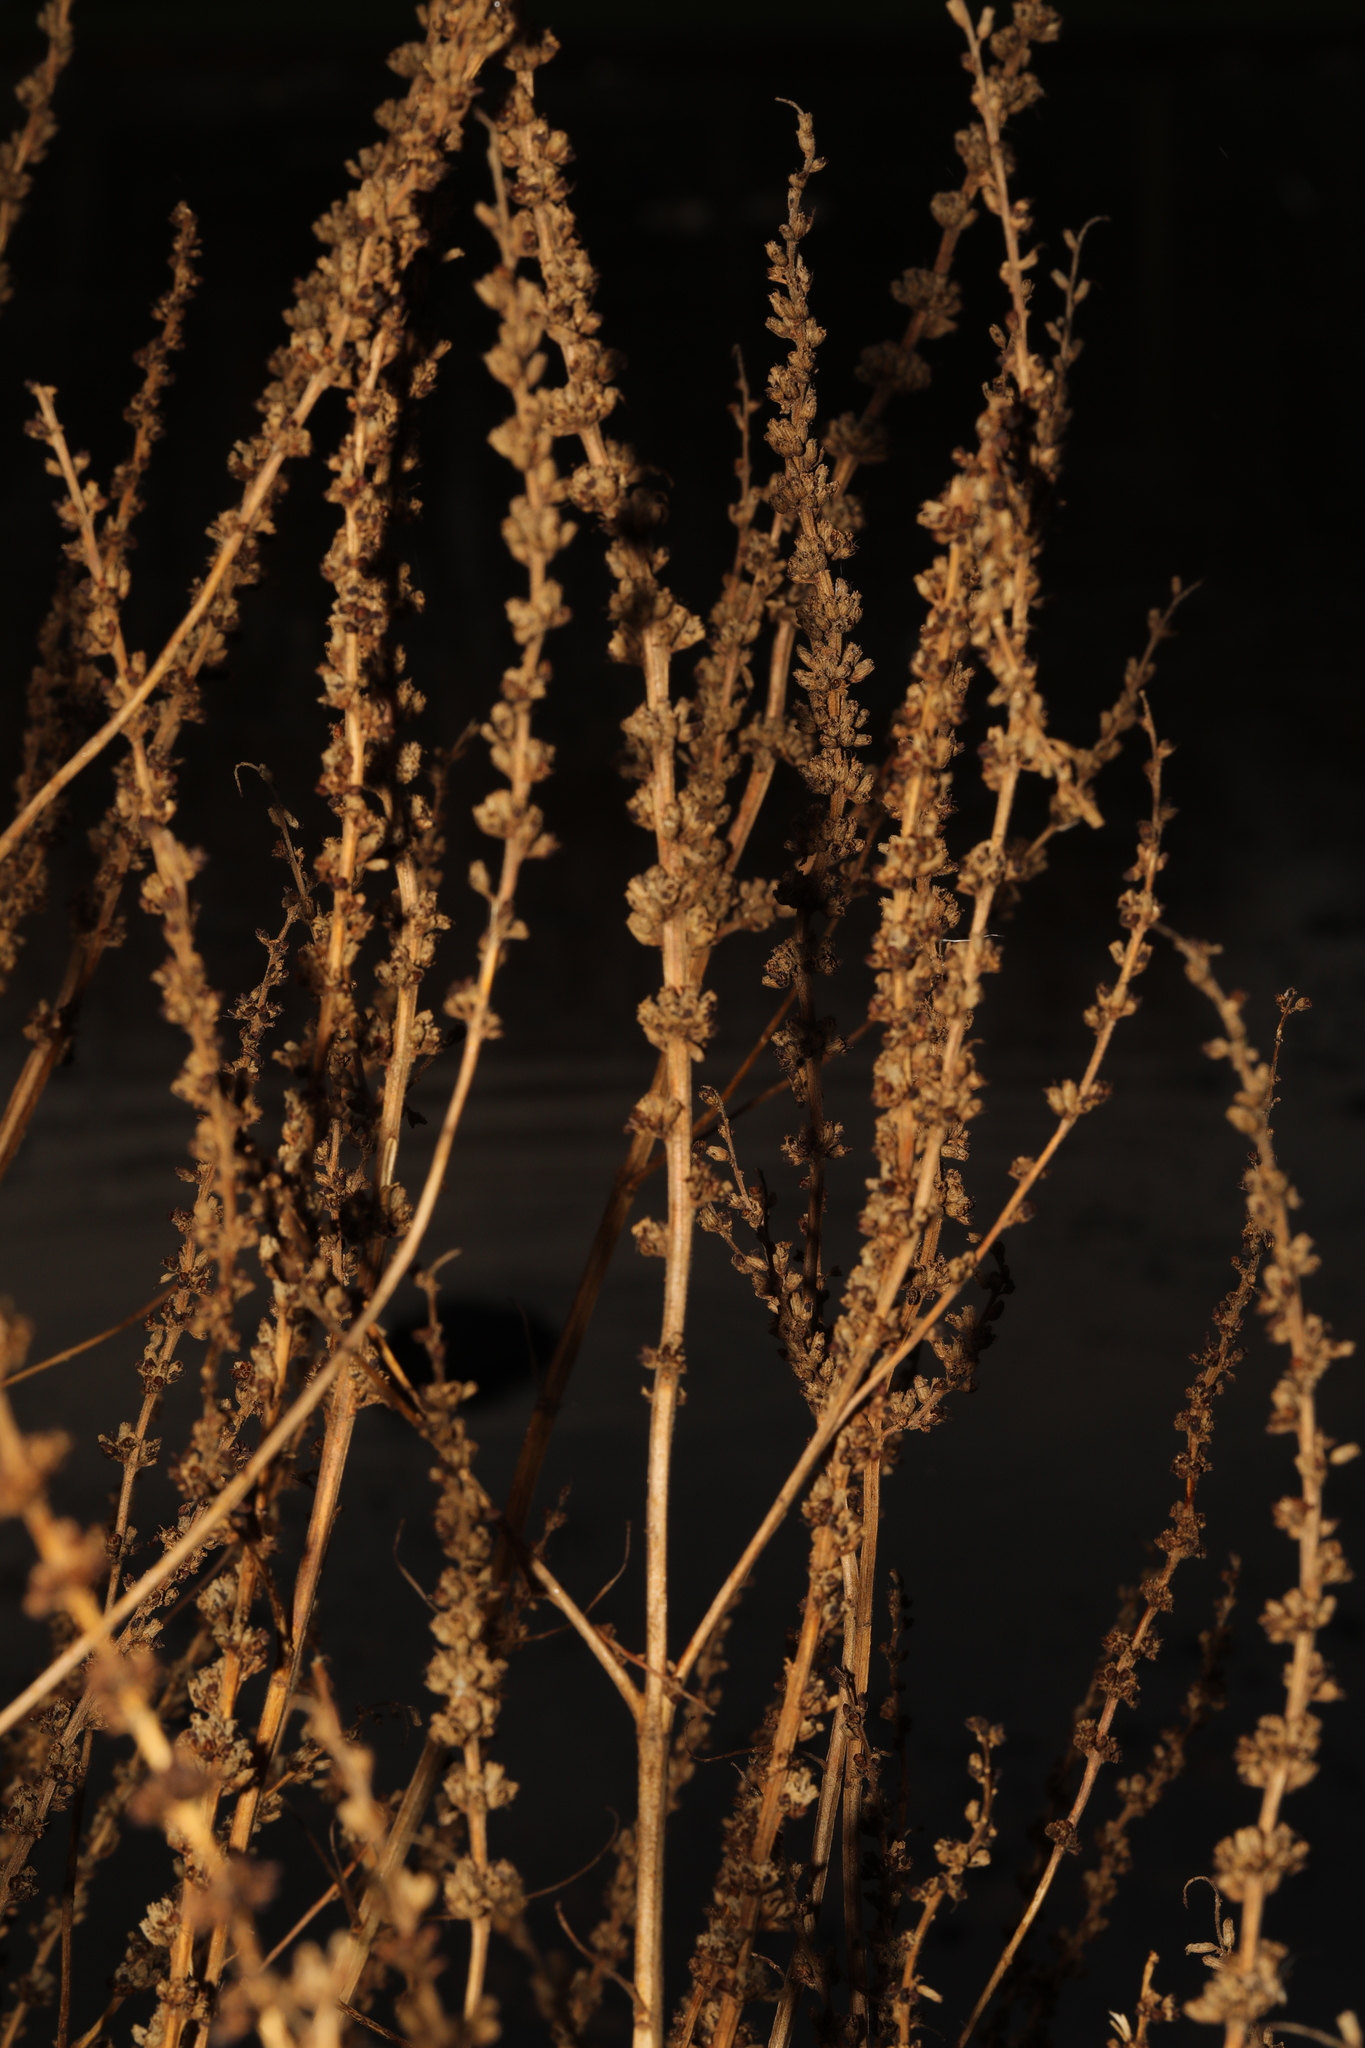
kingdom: Plantae
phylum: Tracheophyta
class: Magnoliopsida
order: Myrtales
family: Lythraceae
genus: Lythrum
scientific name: Lythrum salicaria
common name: Purple loosestrife
